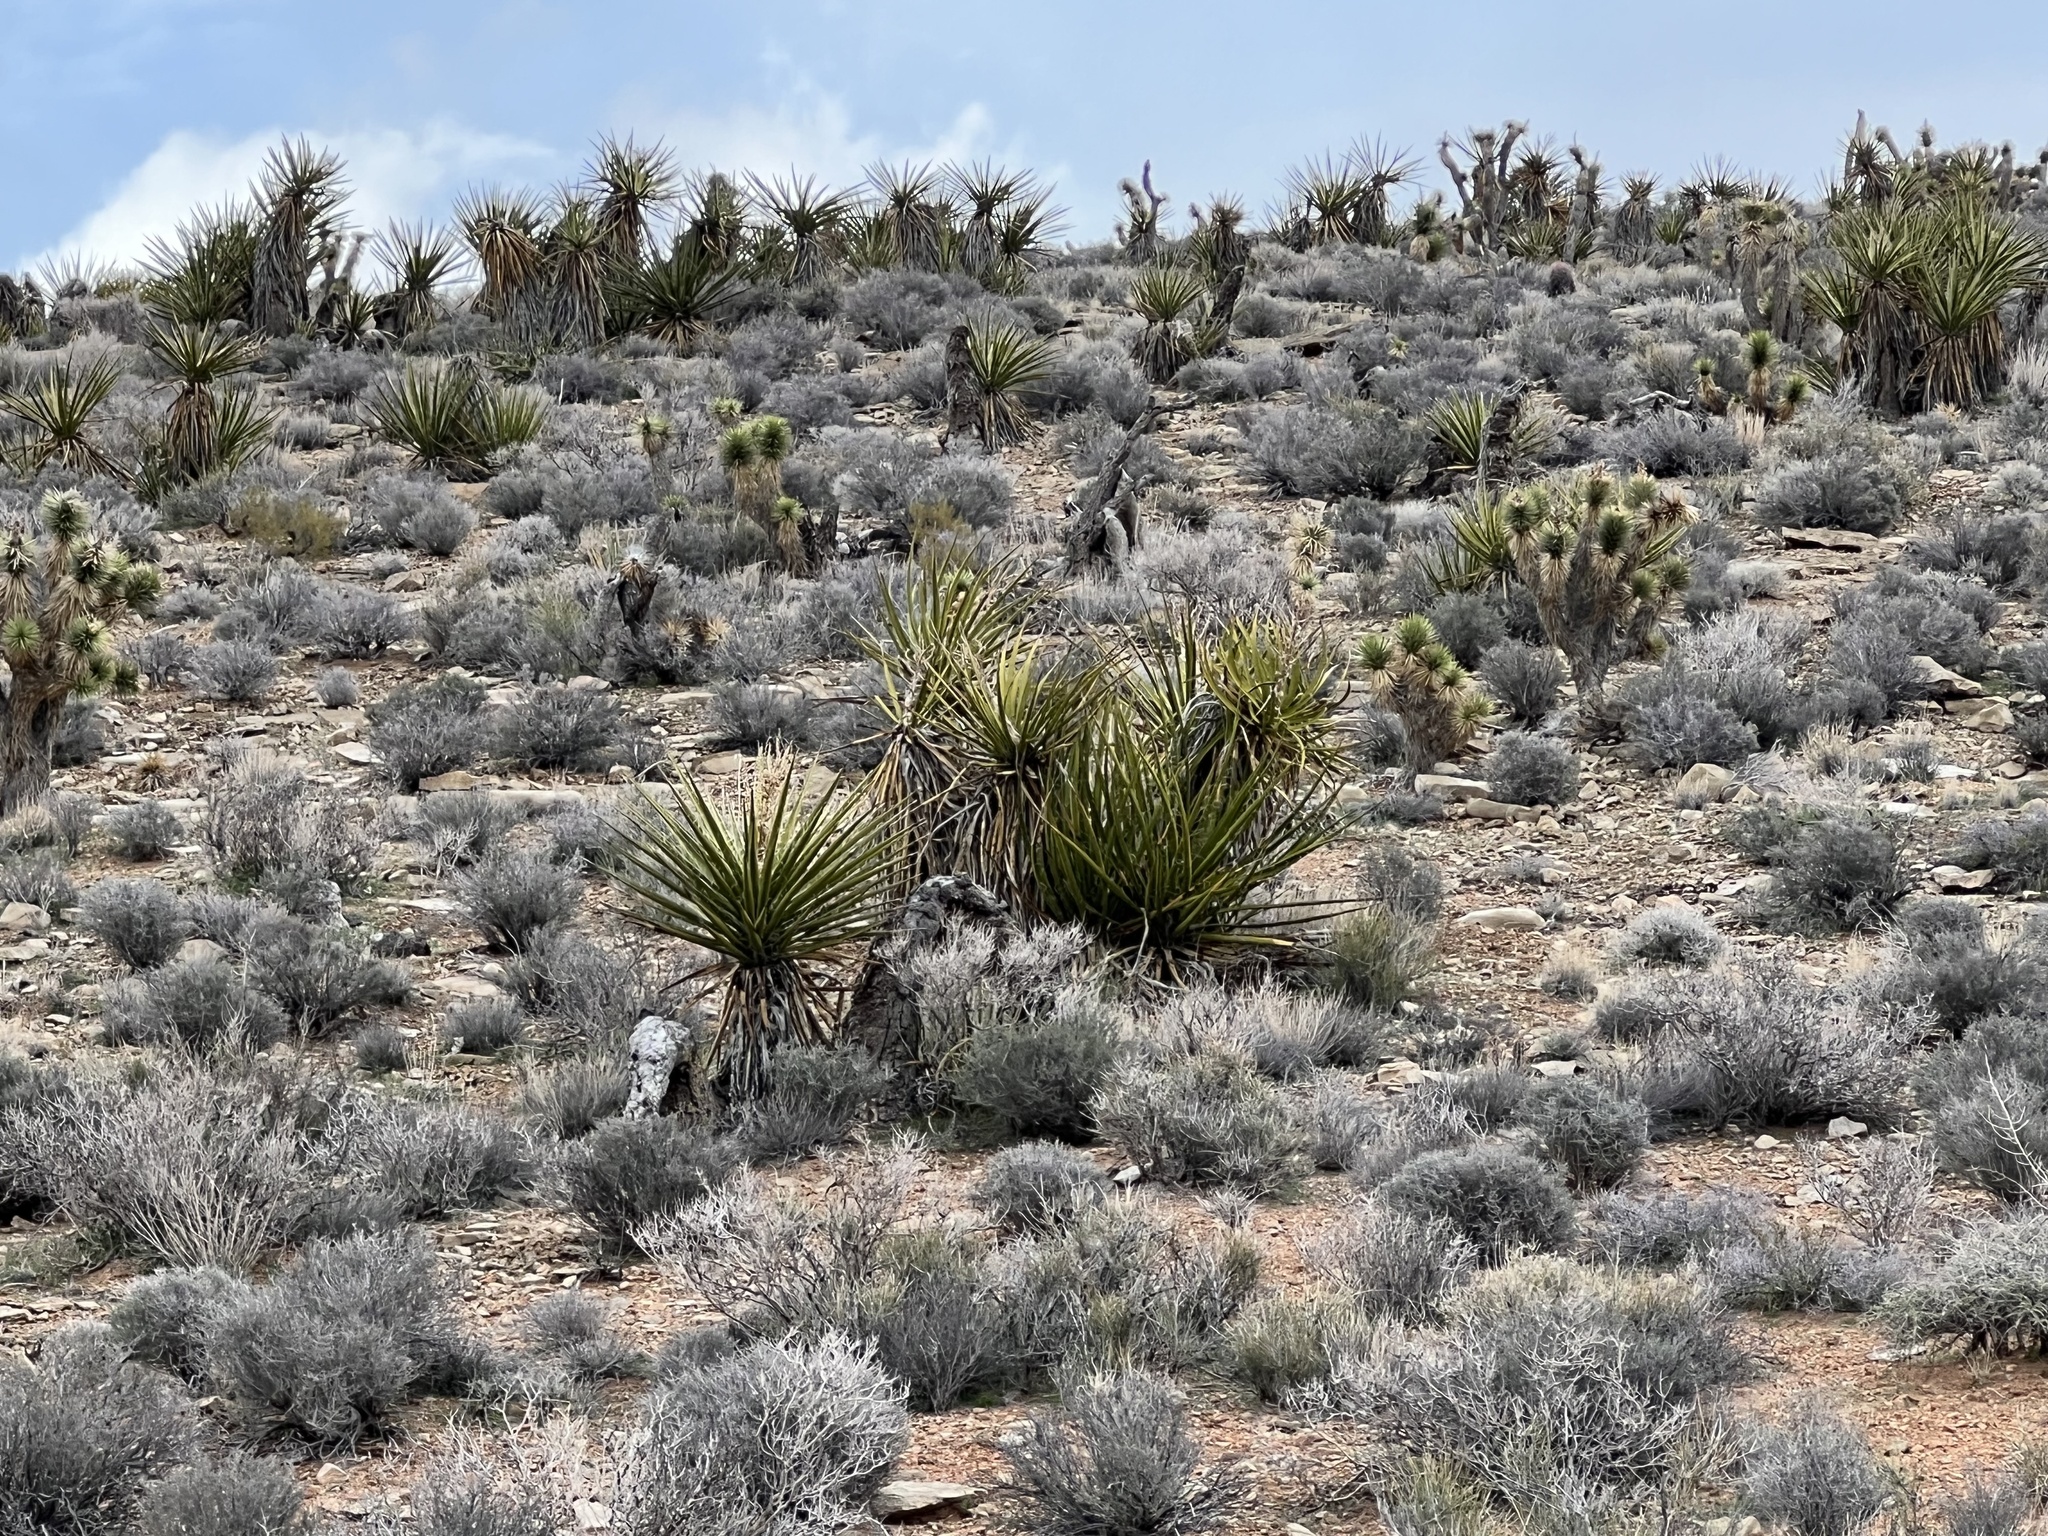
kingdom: Plantae
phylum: Tracheophyta
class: Liliopsida
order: Asparagales
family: Asparagaceae
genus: Yucca
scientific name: Yucca schidigera
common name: Mojave yucca
